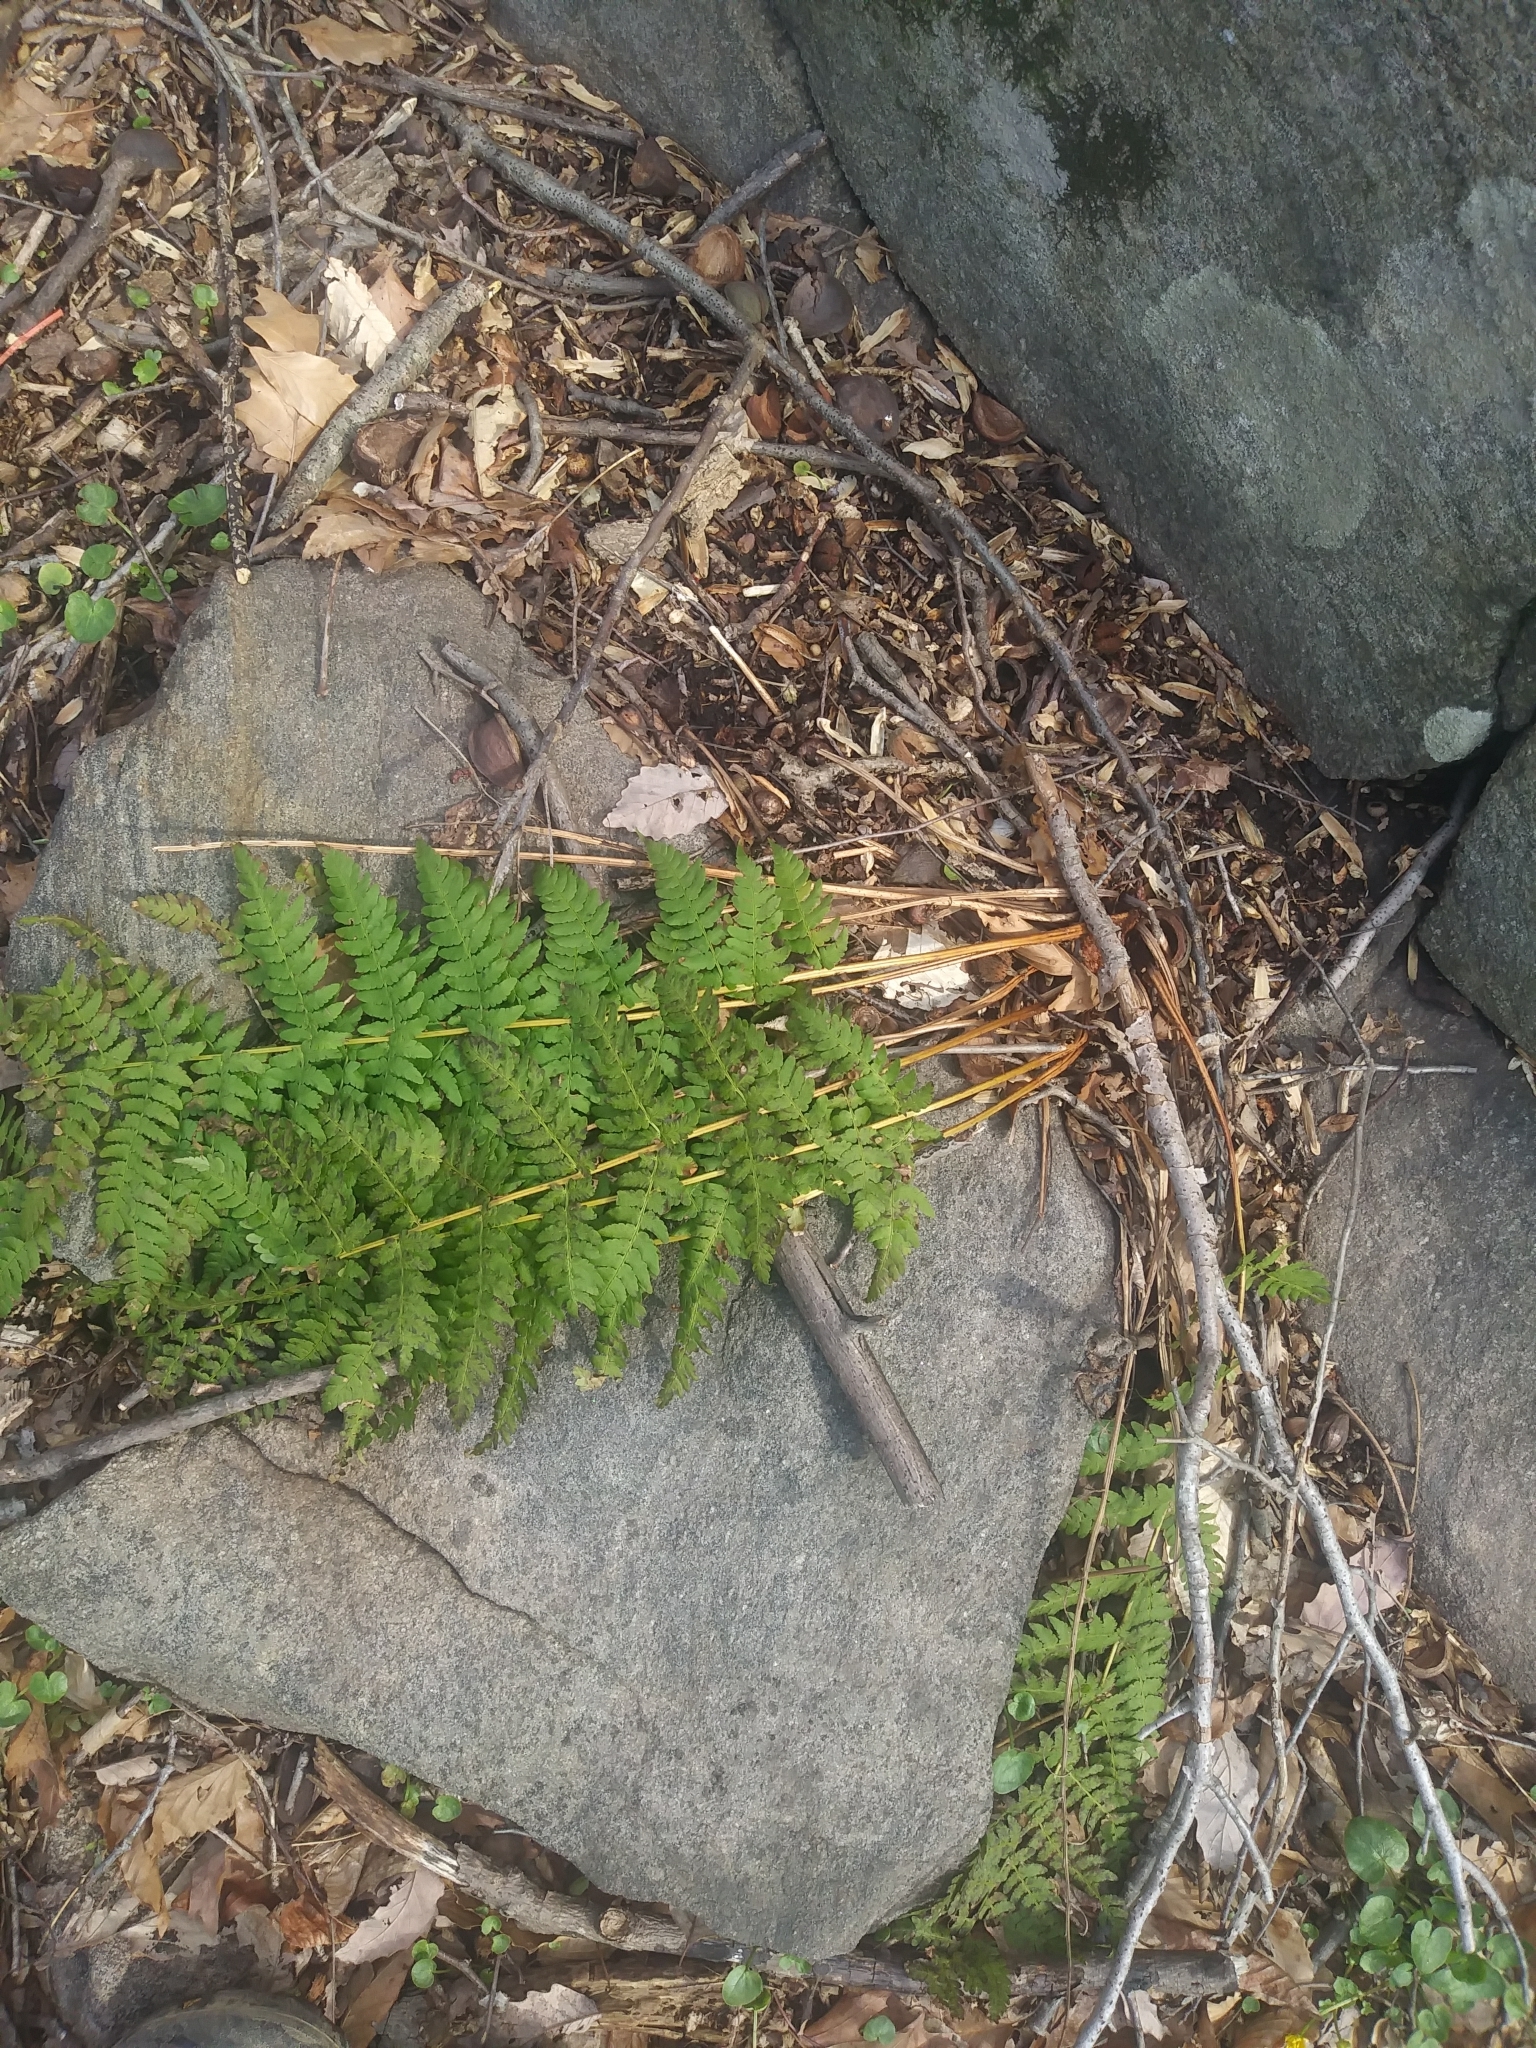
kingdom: Plantae
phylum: Tracheophyta
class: Polypodiopsida
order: Polypodiales
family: Dryopteridaceae
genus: Dryopteris
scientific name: Dryopteris marginalis
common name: Marginal wood fern
